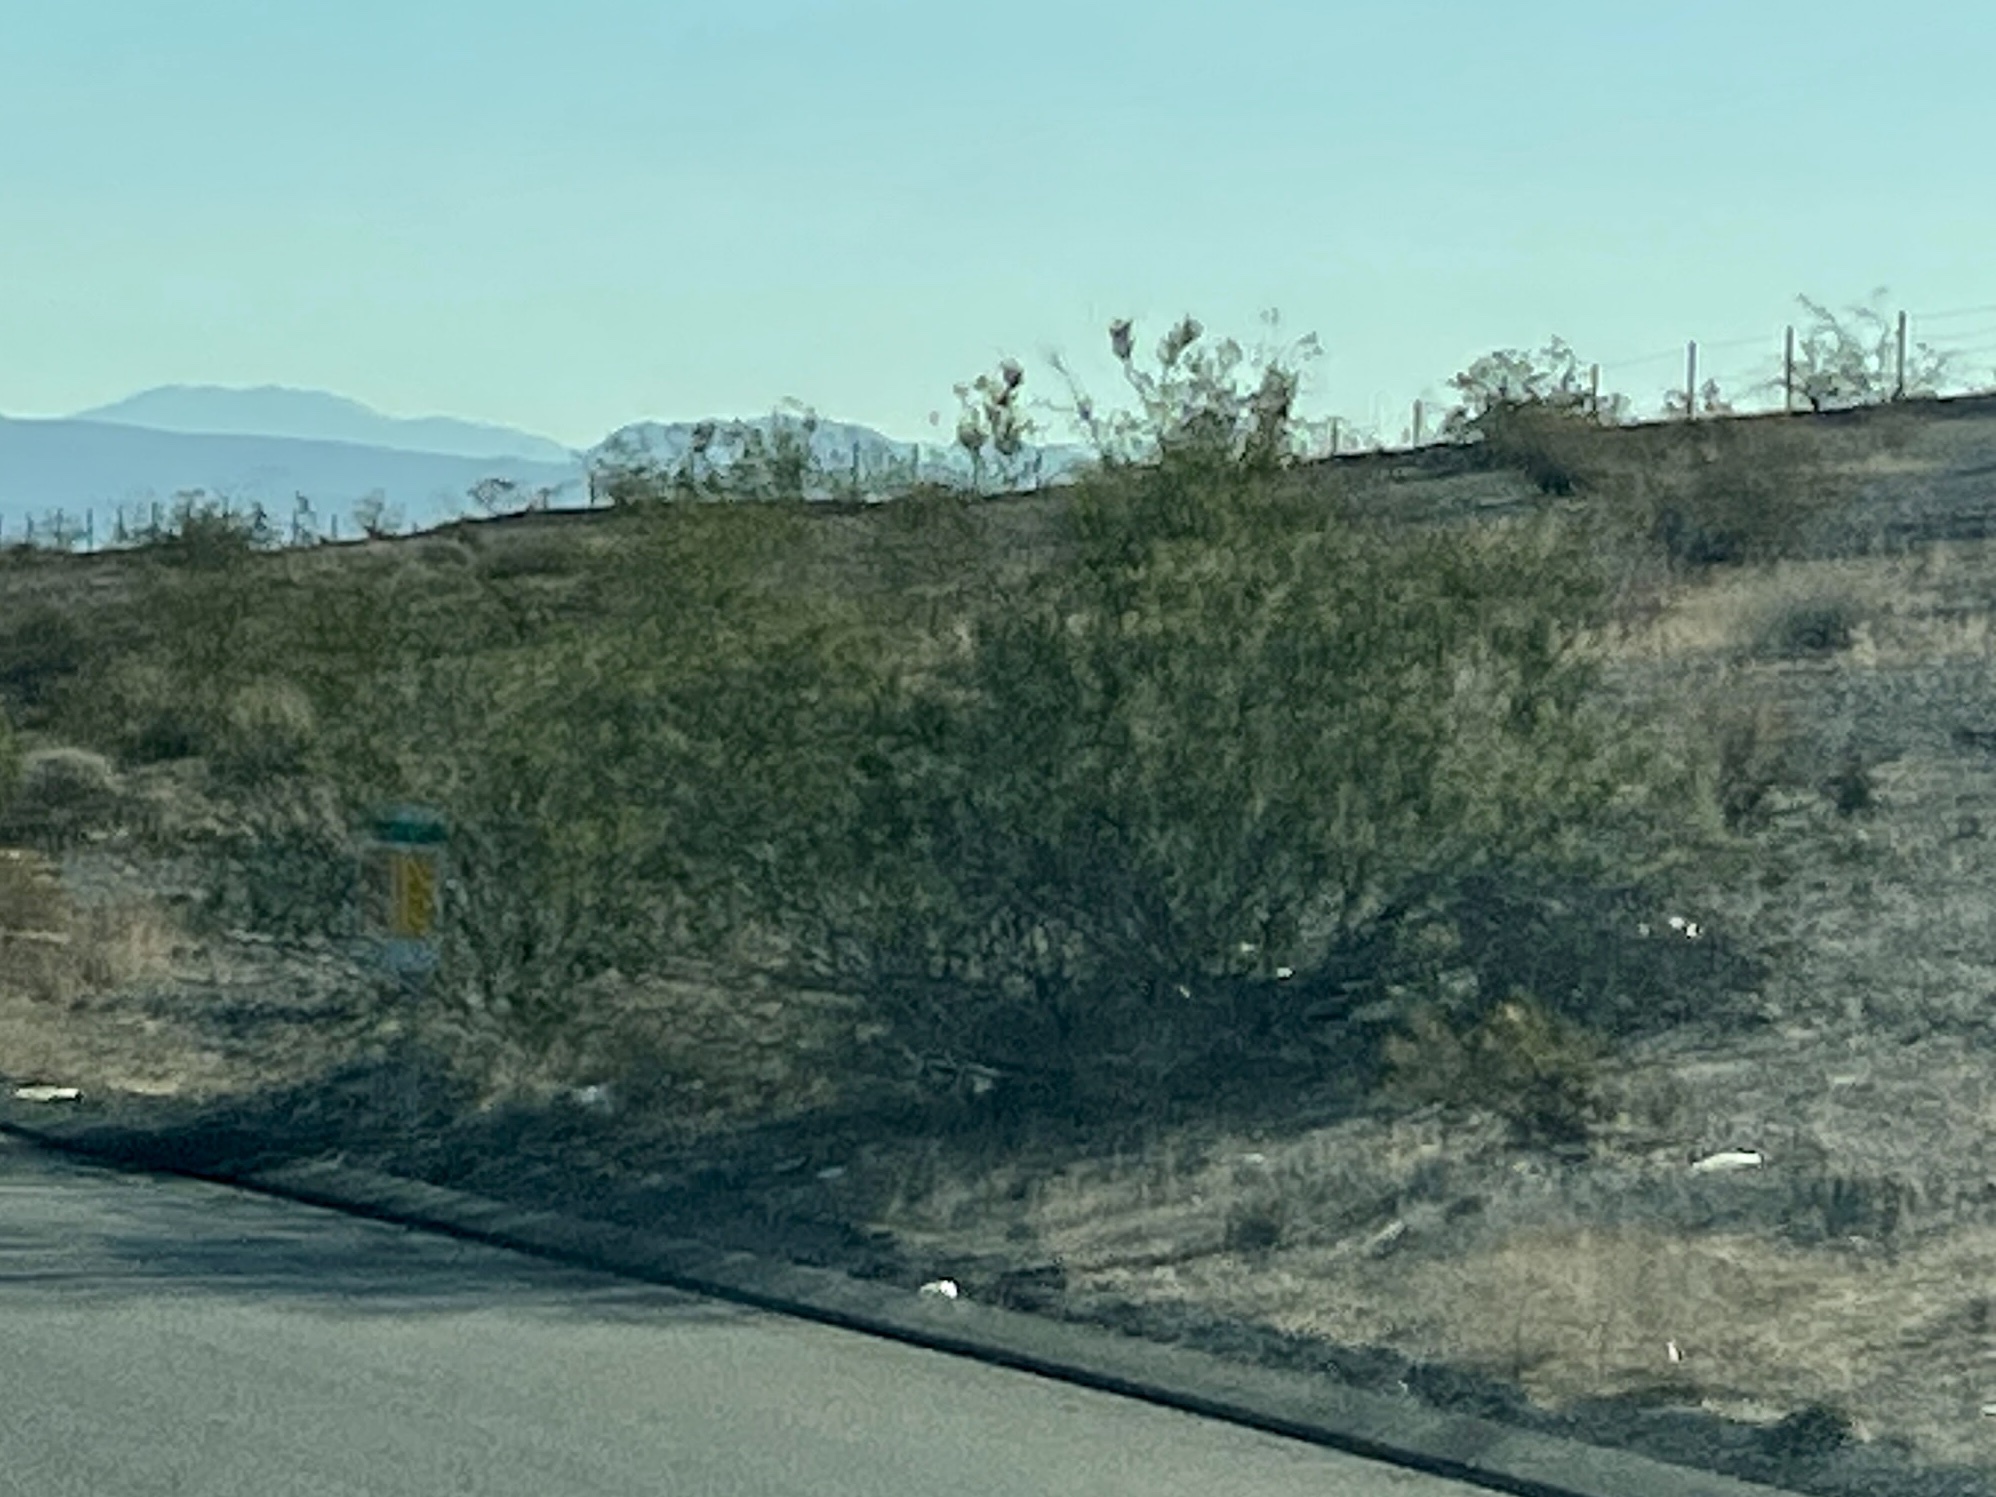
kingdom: Plantae
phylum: Tracheophyta
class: Magnoliopsida
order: Zygophyllales
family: Zygophyllaceae
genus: Larrea
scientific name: Larrea tridentata
